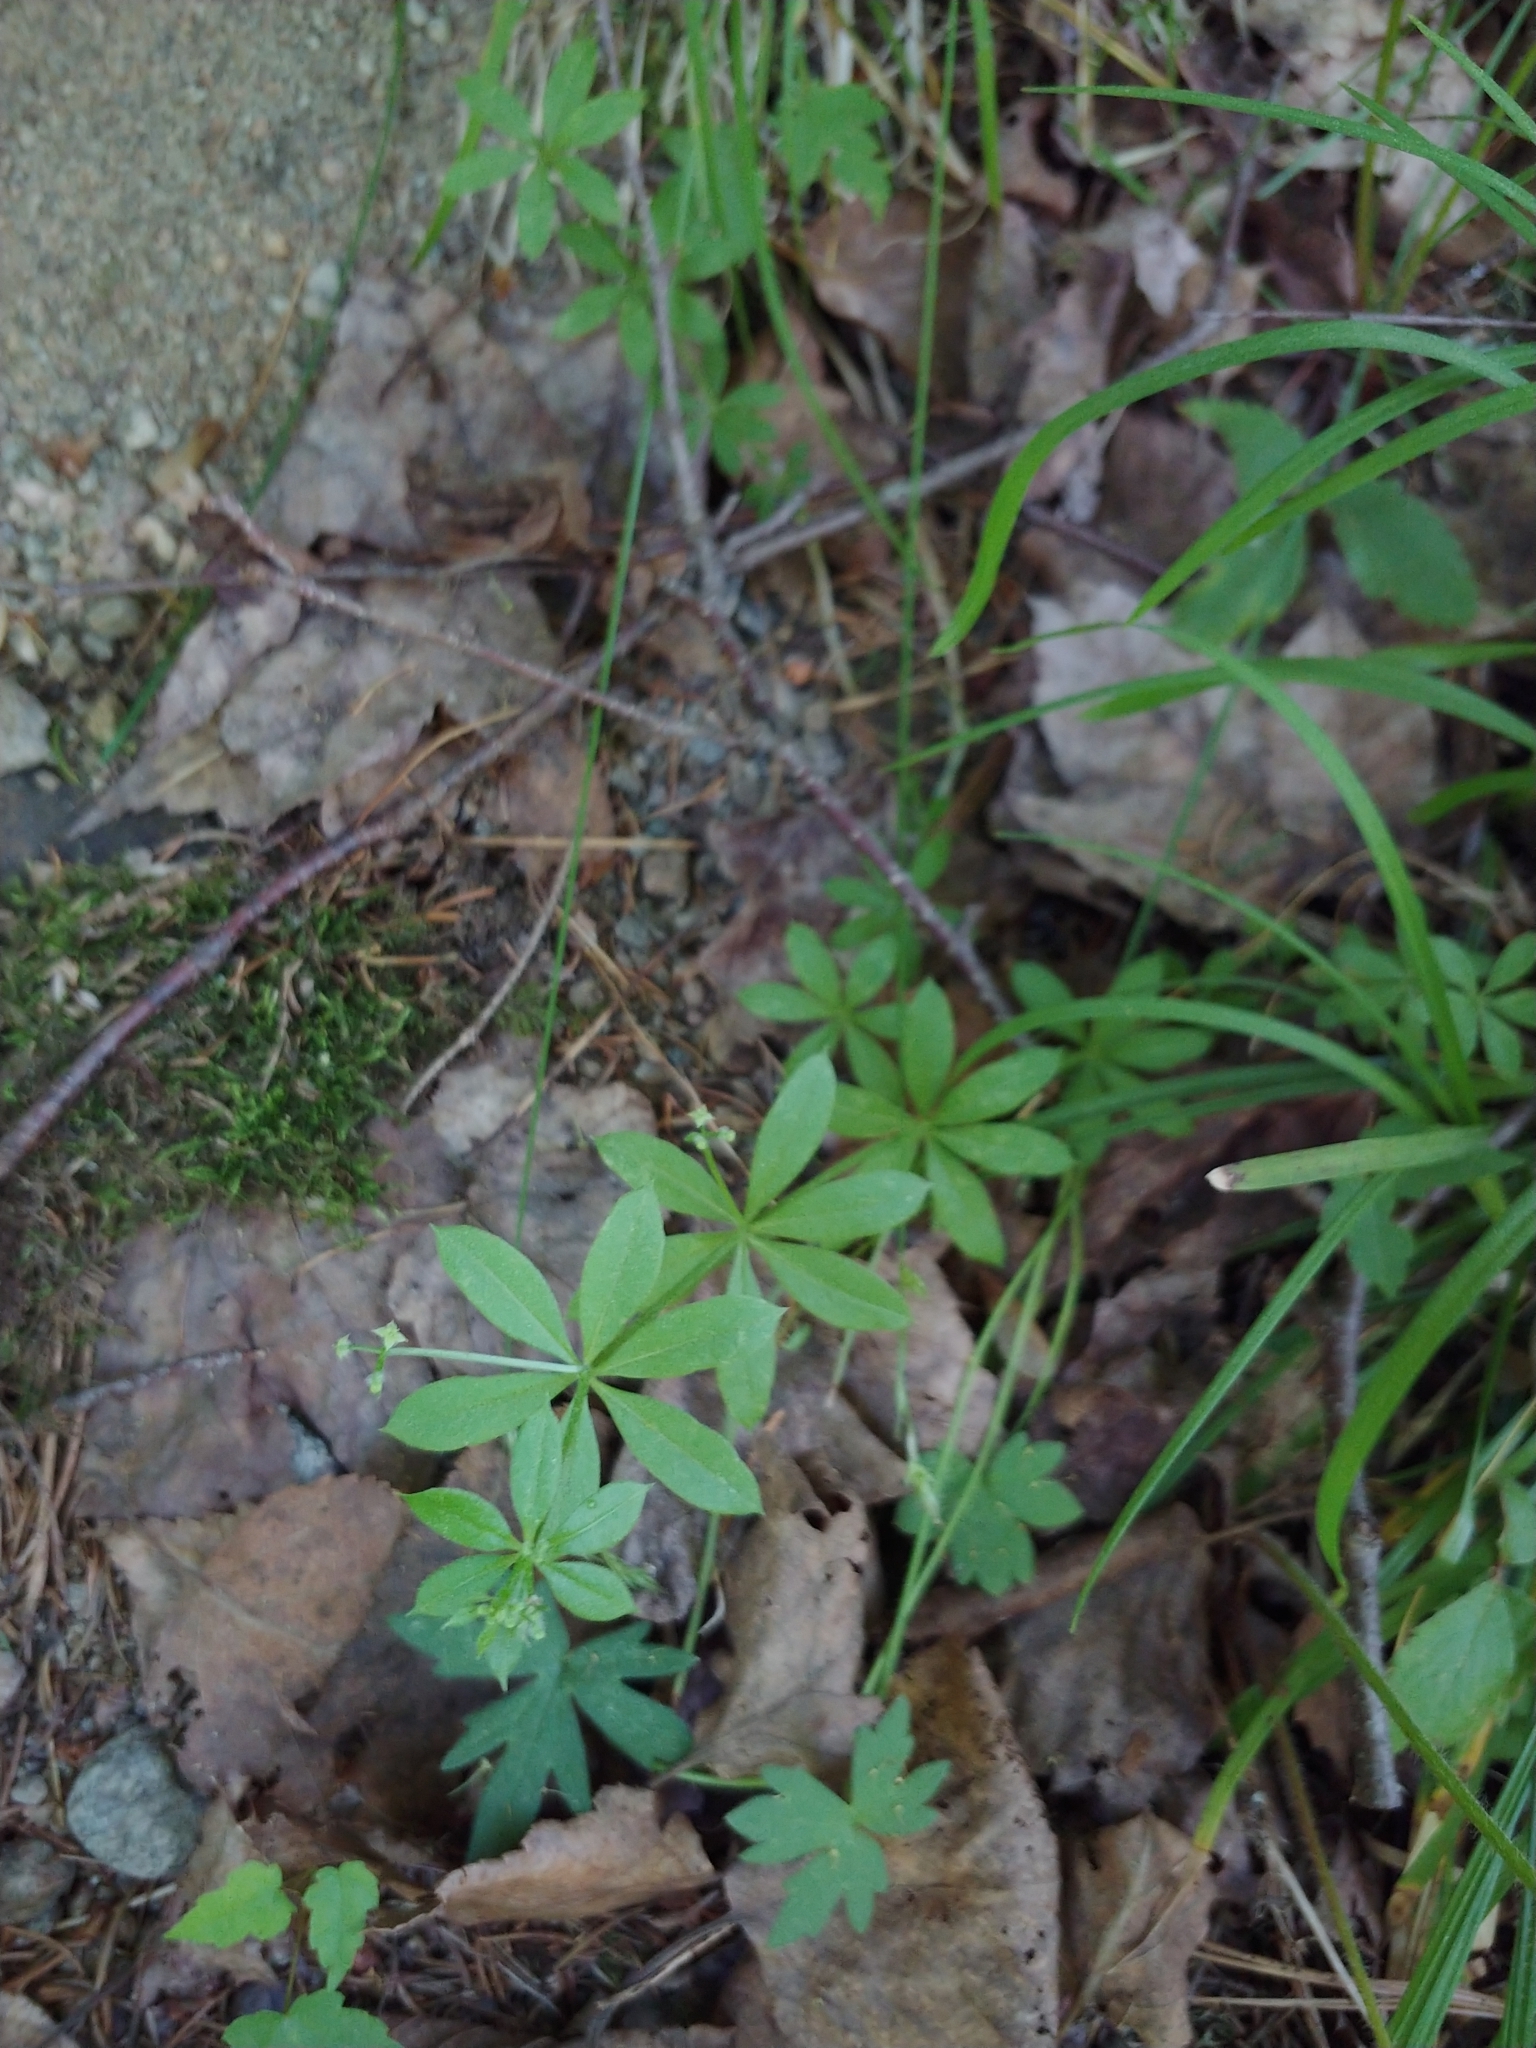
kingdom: Plantae
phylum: Tracheophyta
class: Magnoliopsida
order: Gentianales
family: Rubiaceae
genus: Galium
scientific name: Galium triflorum
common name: Fragrant bedstraw
